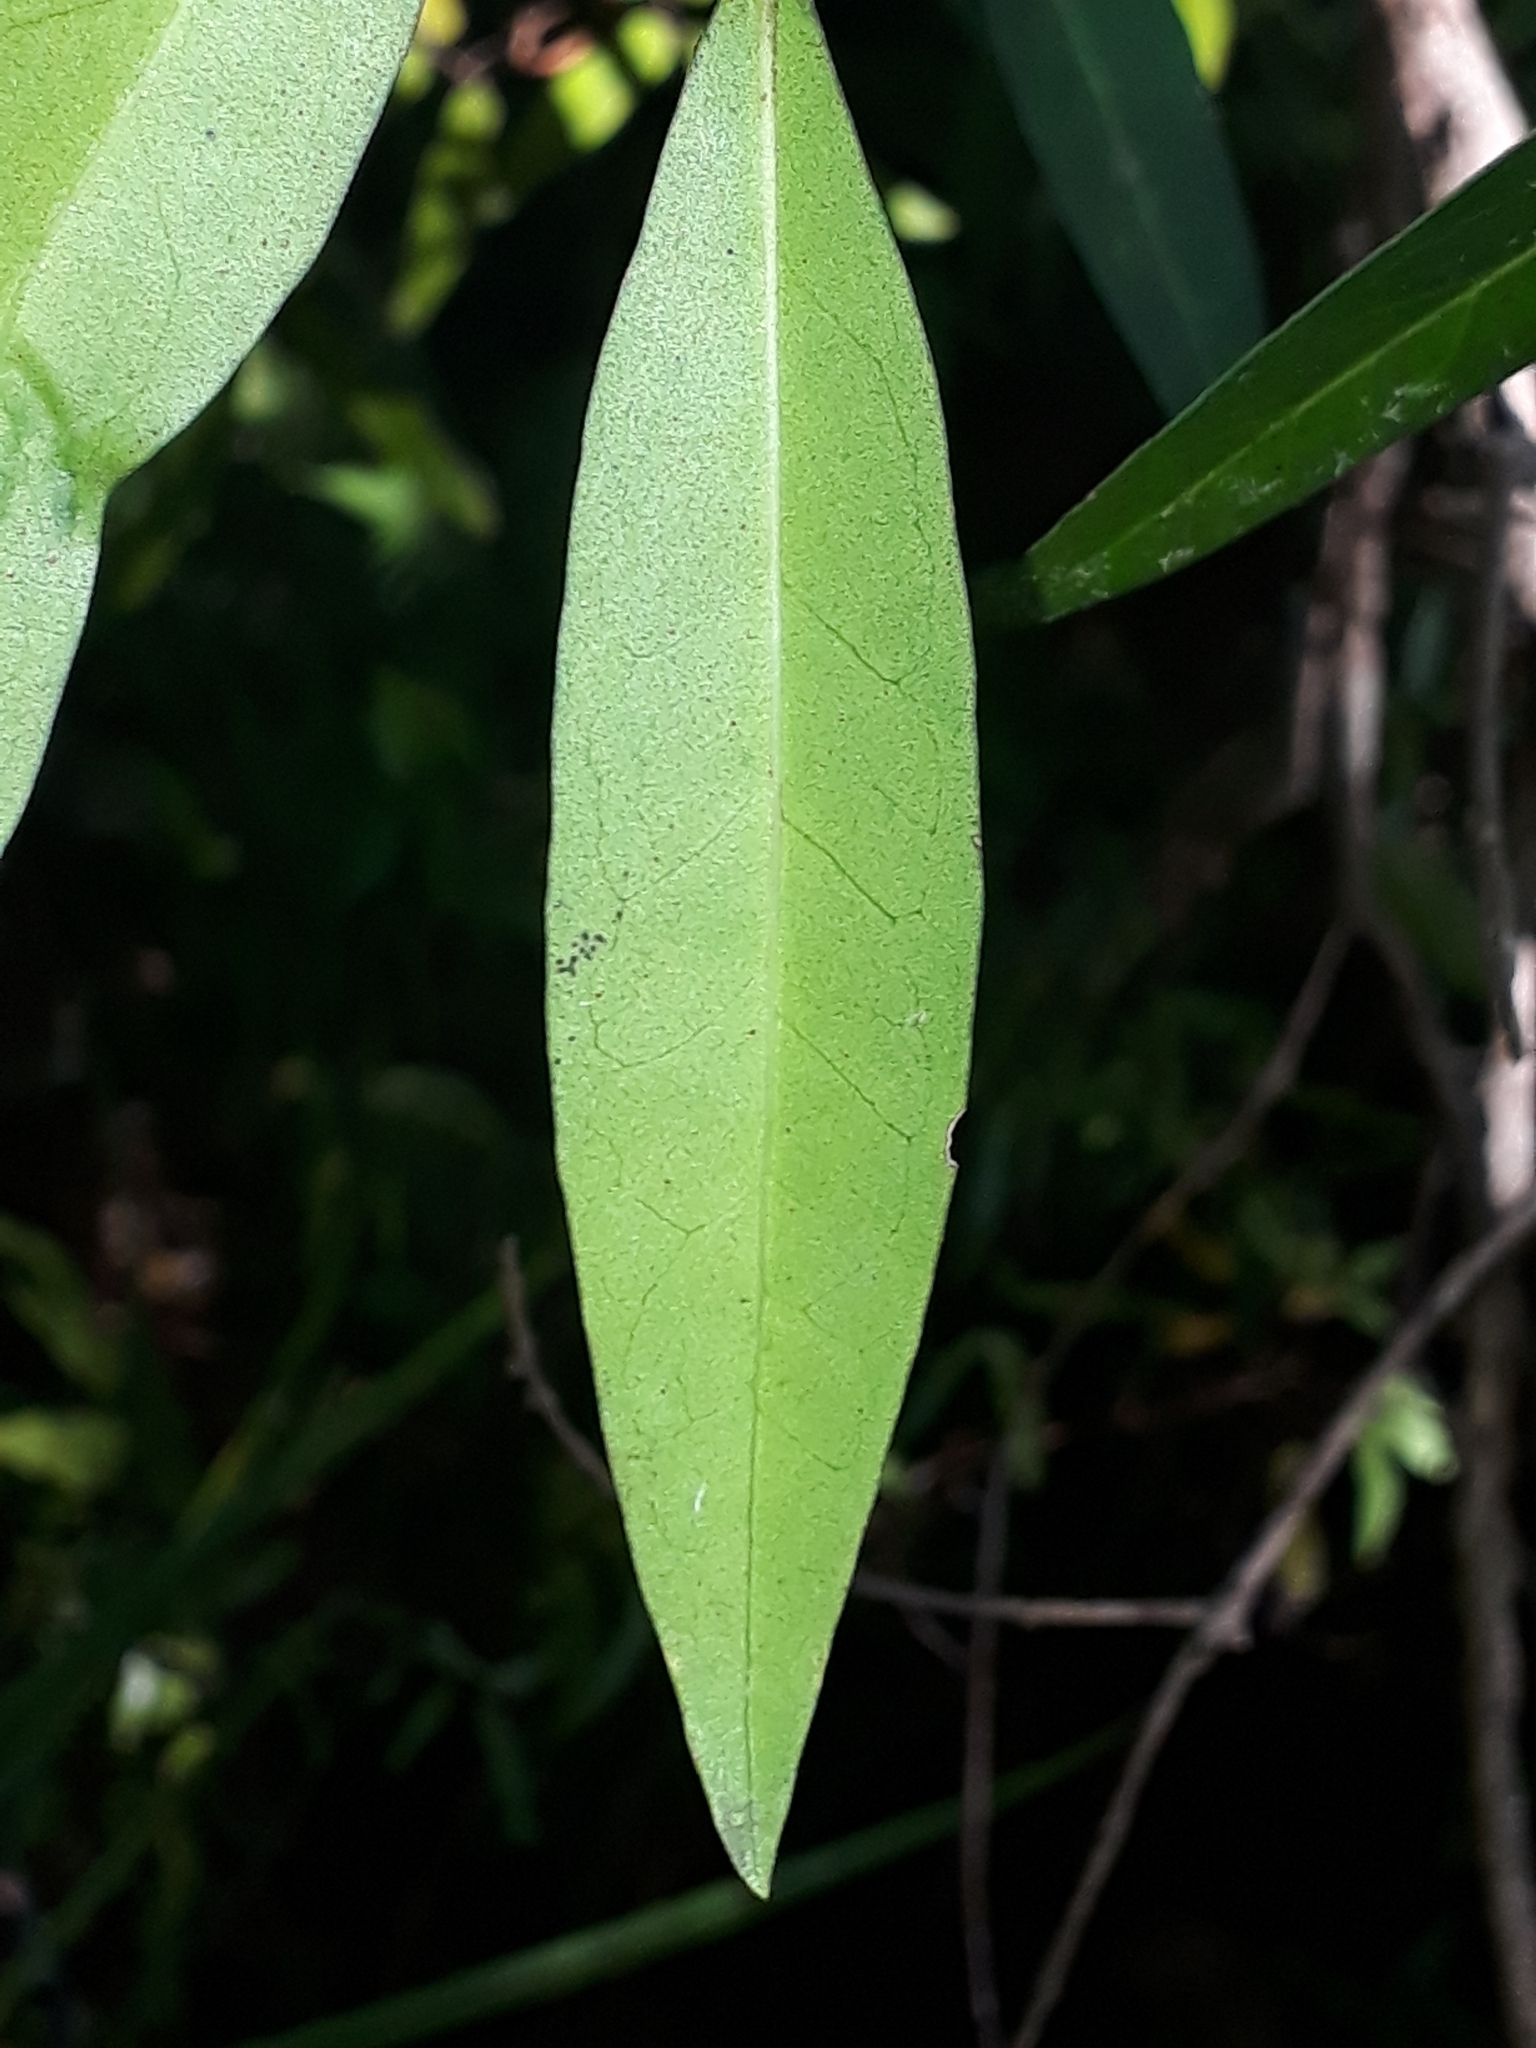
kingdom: Plantae
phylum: Tracheophyta
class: Magnoliopsida
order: Lamiales
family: Oleaceae
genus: Nestegis
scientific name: Nestegis lanceolata
